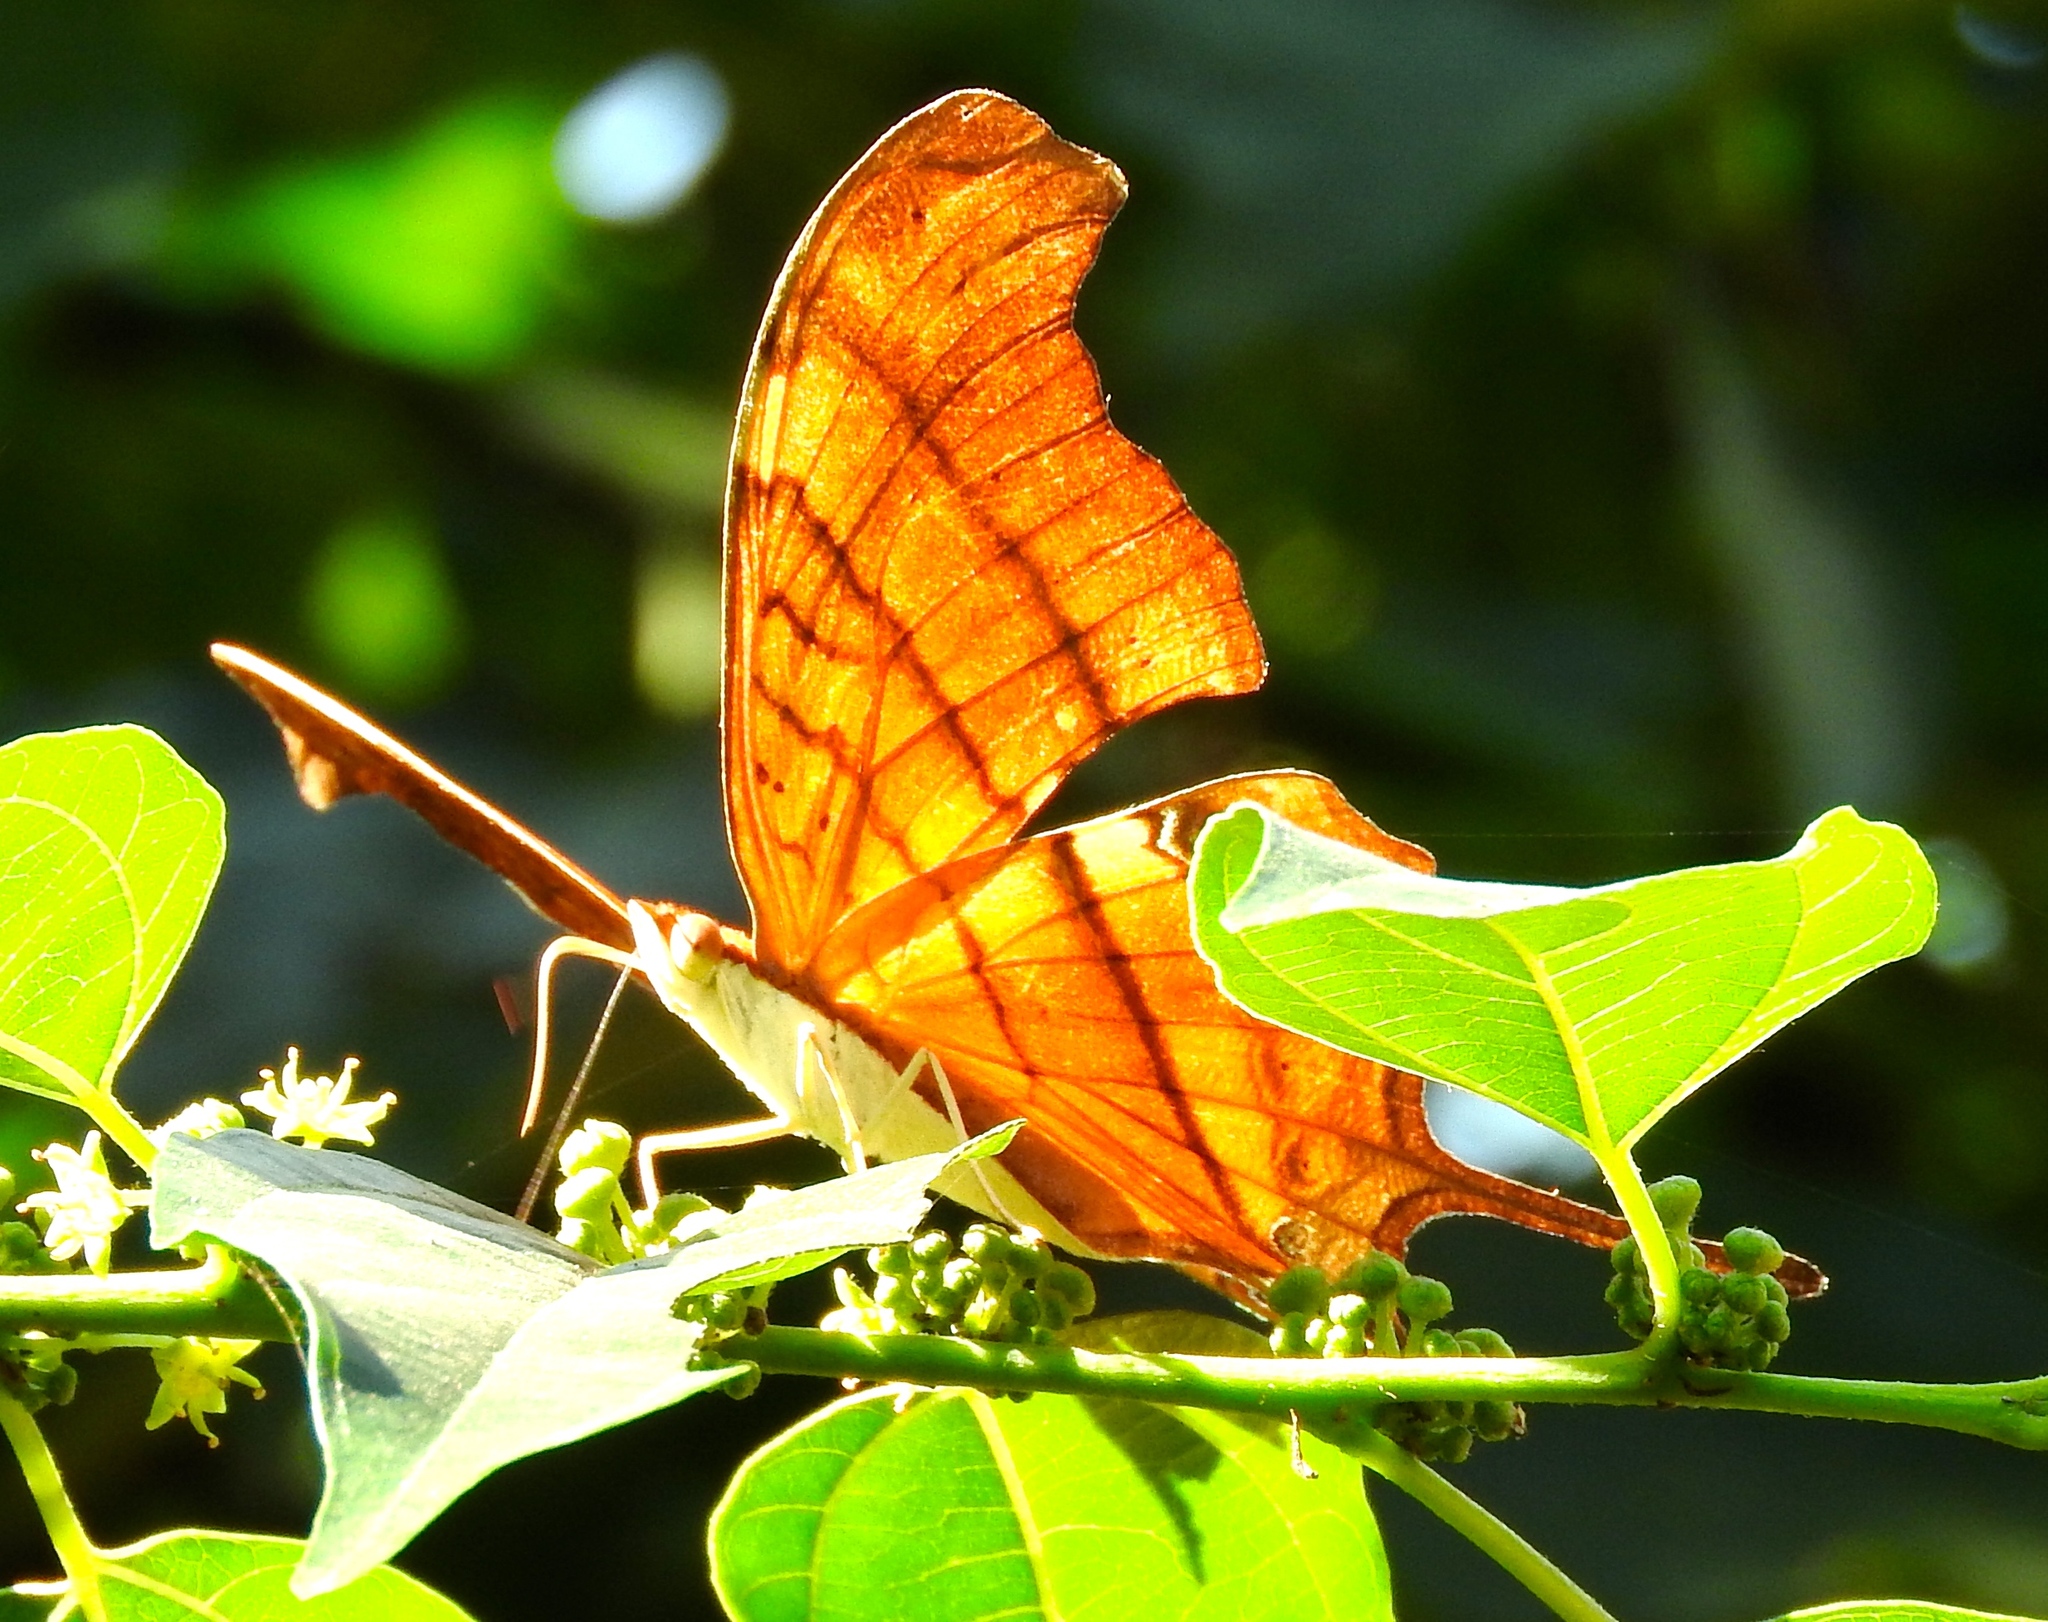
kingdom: Animalia
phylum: Arthropoda
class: Insecta
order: Lepidoptera
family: Nymphalidae
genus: Marpesia
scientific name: Marpesia petreus
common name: Red dagger wing
